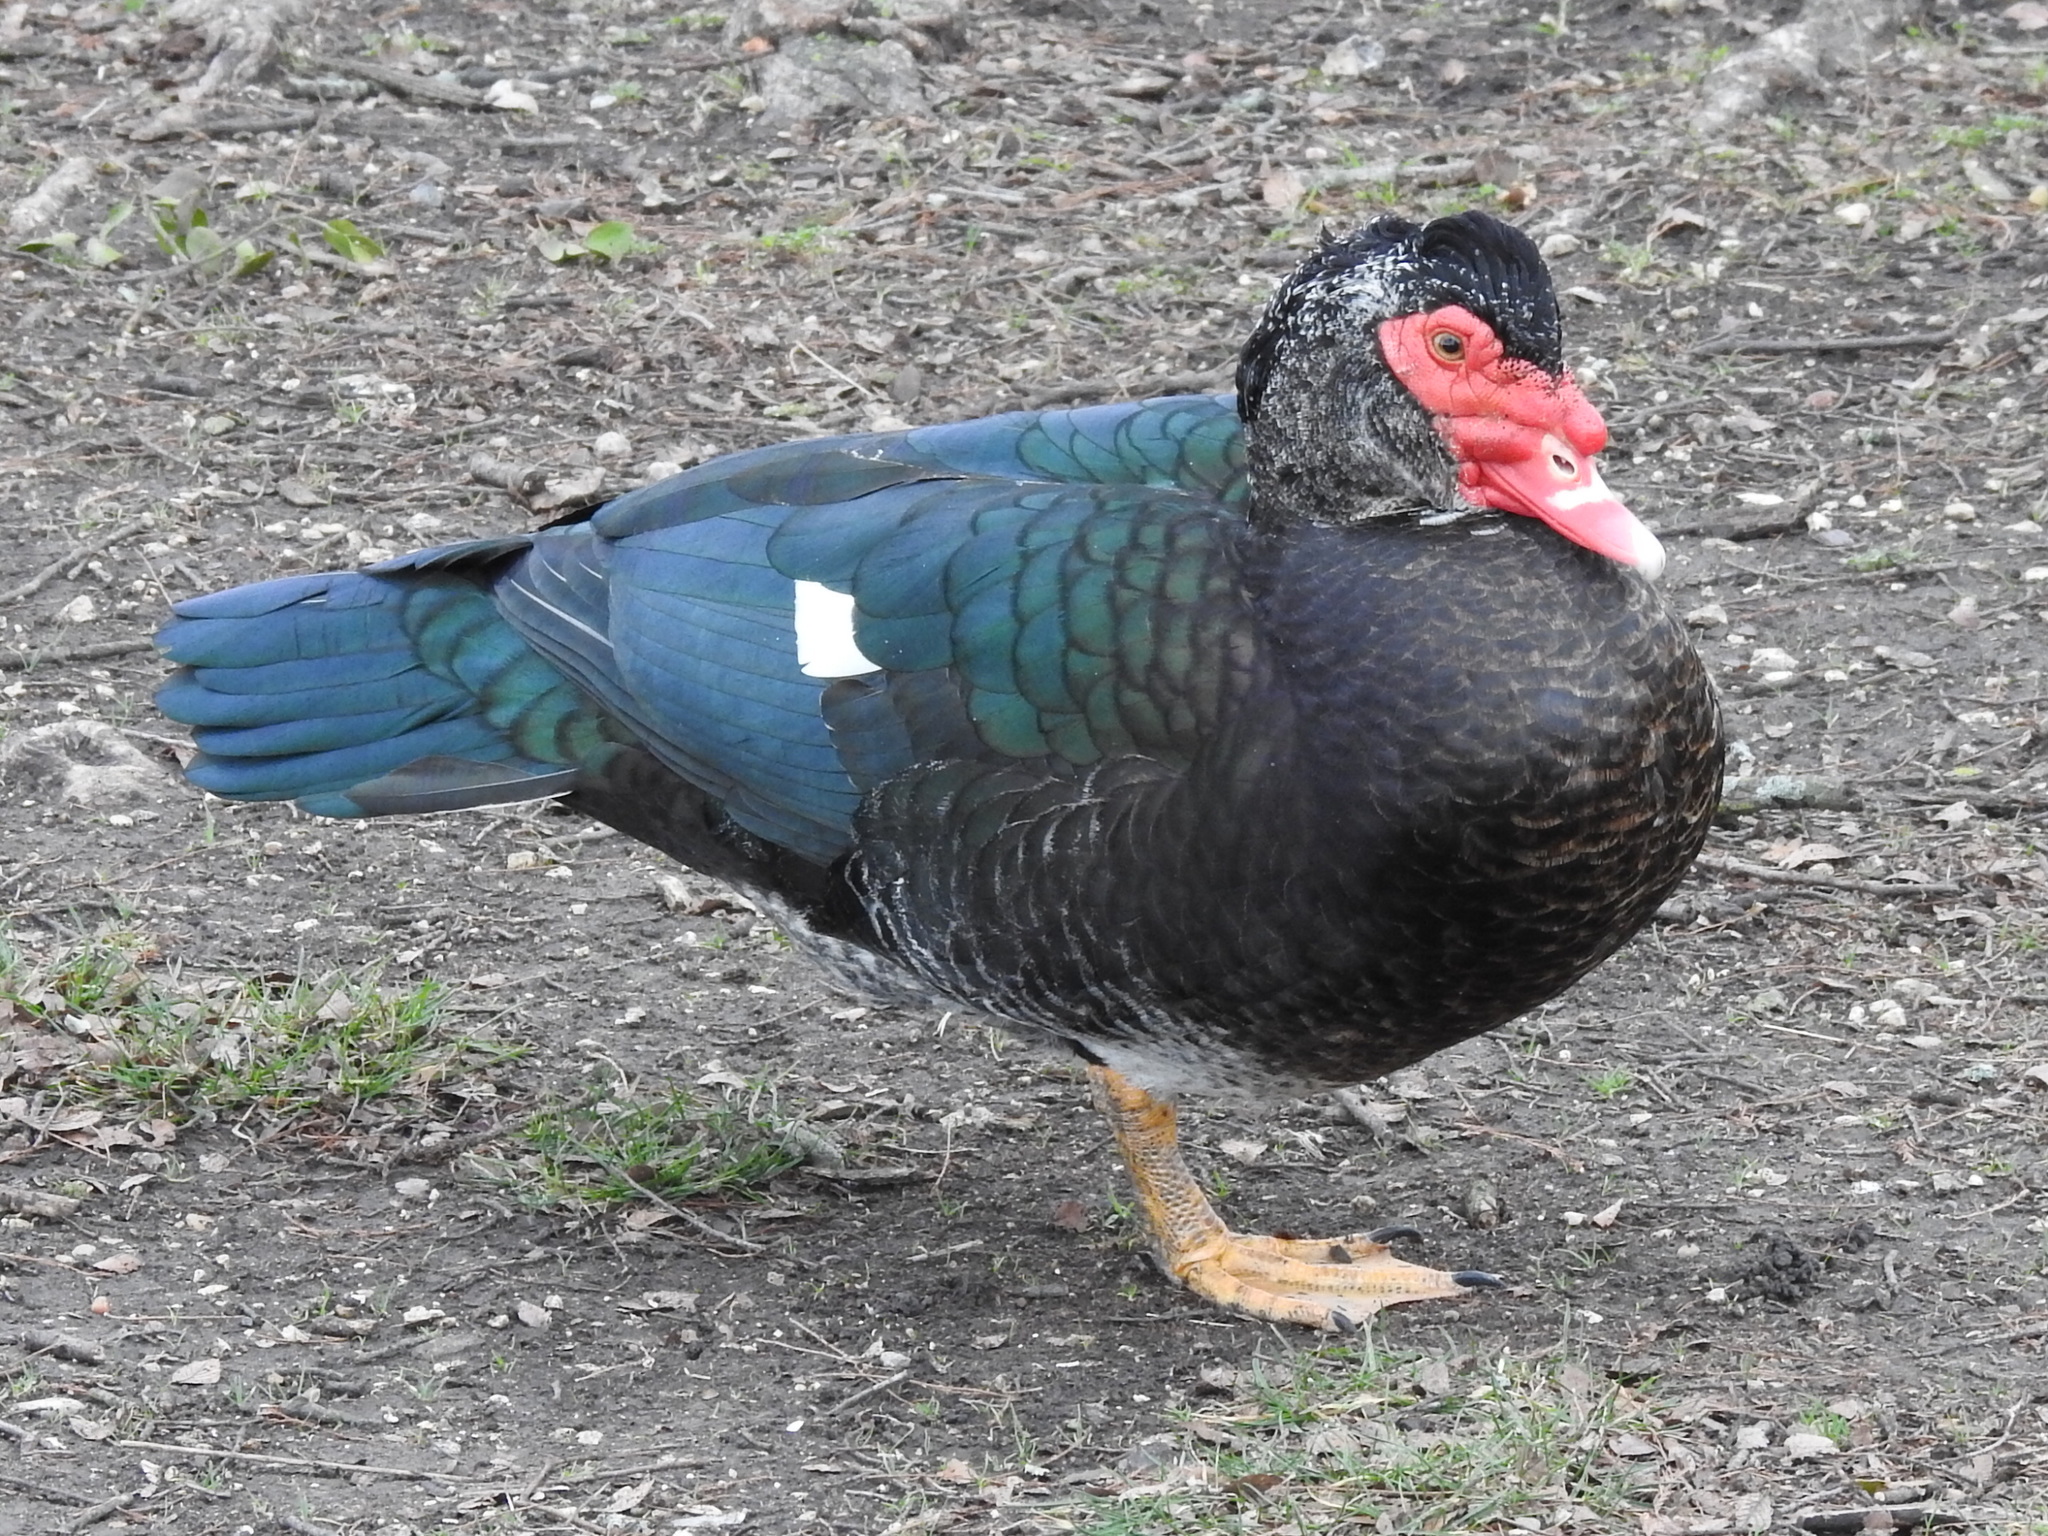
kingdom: Animalia
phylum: Chordata
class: Aves
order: Anseriformes
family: Anatidae
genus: Cairina
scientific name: Cairina moschata
